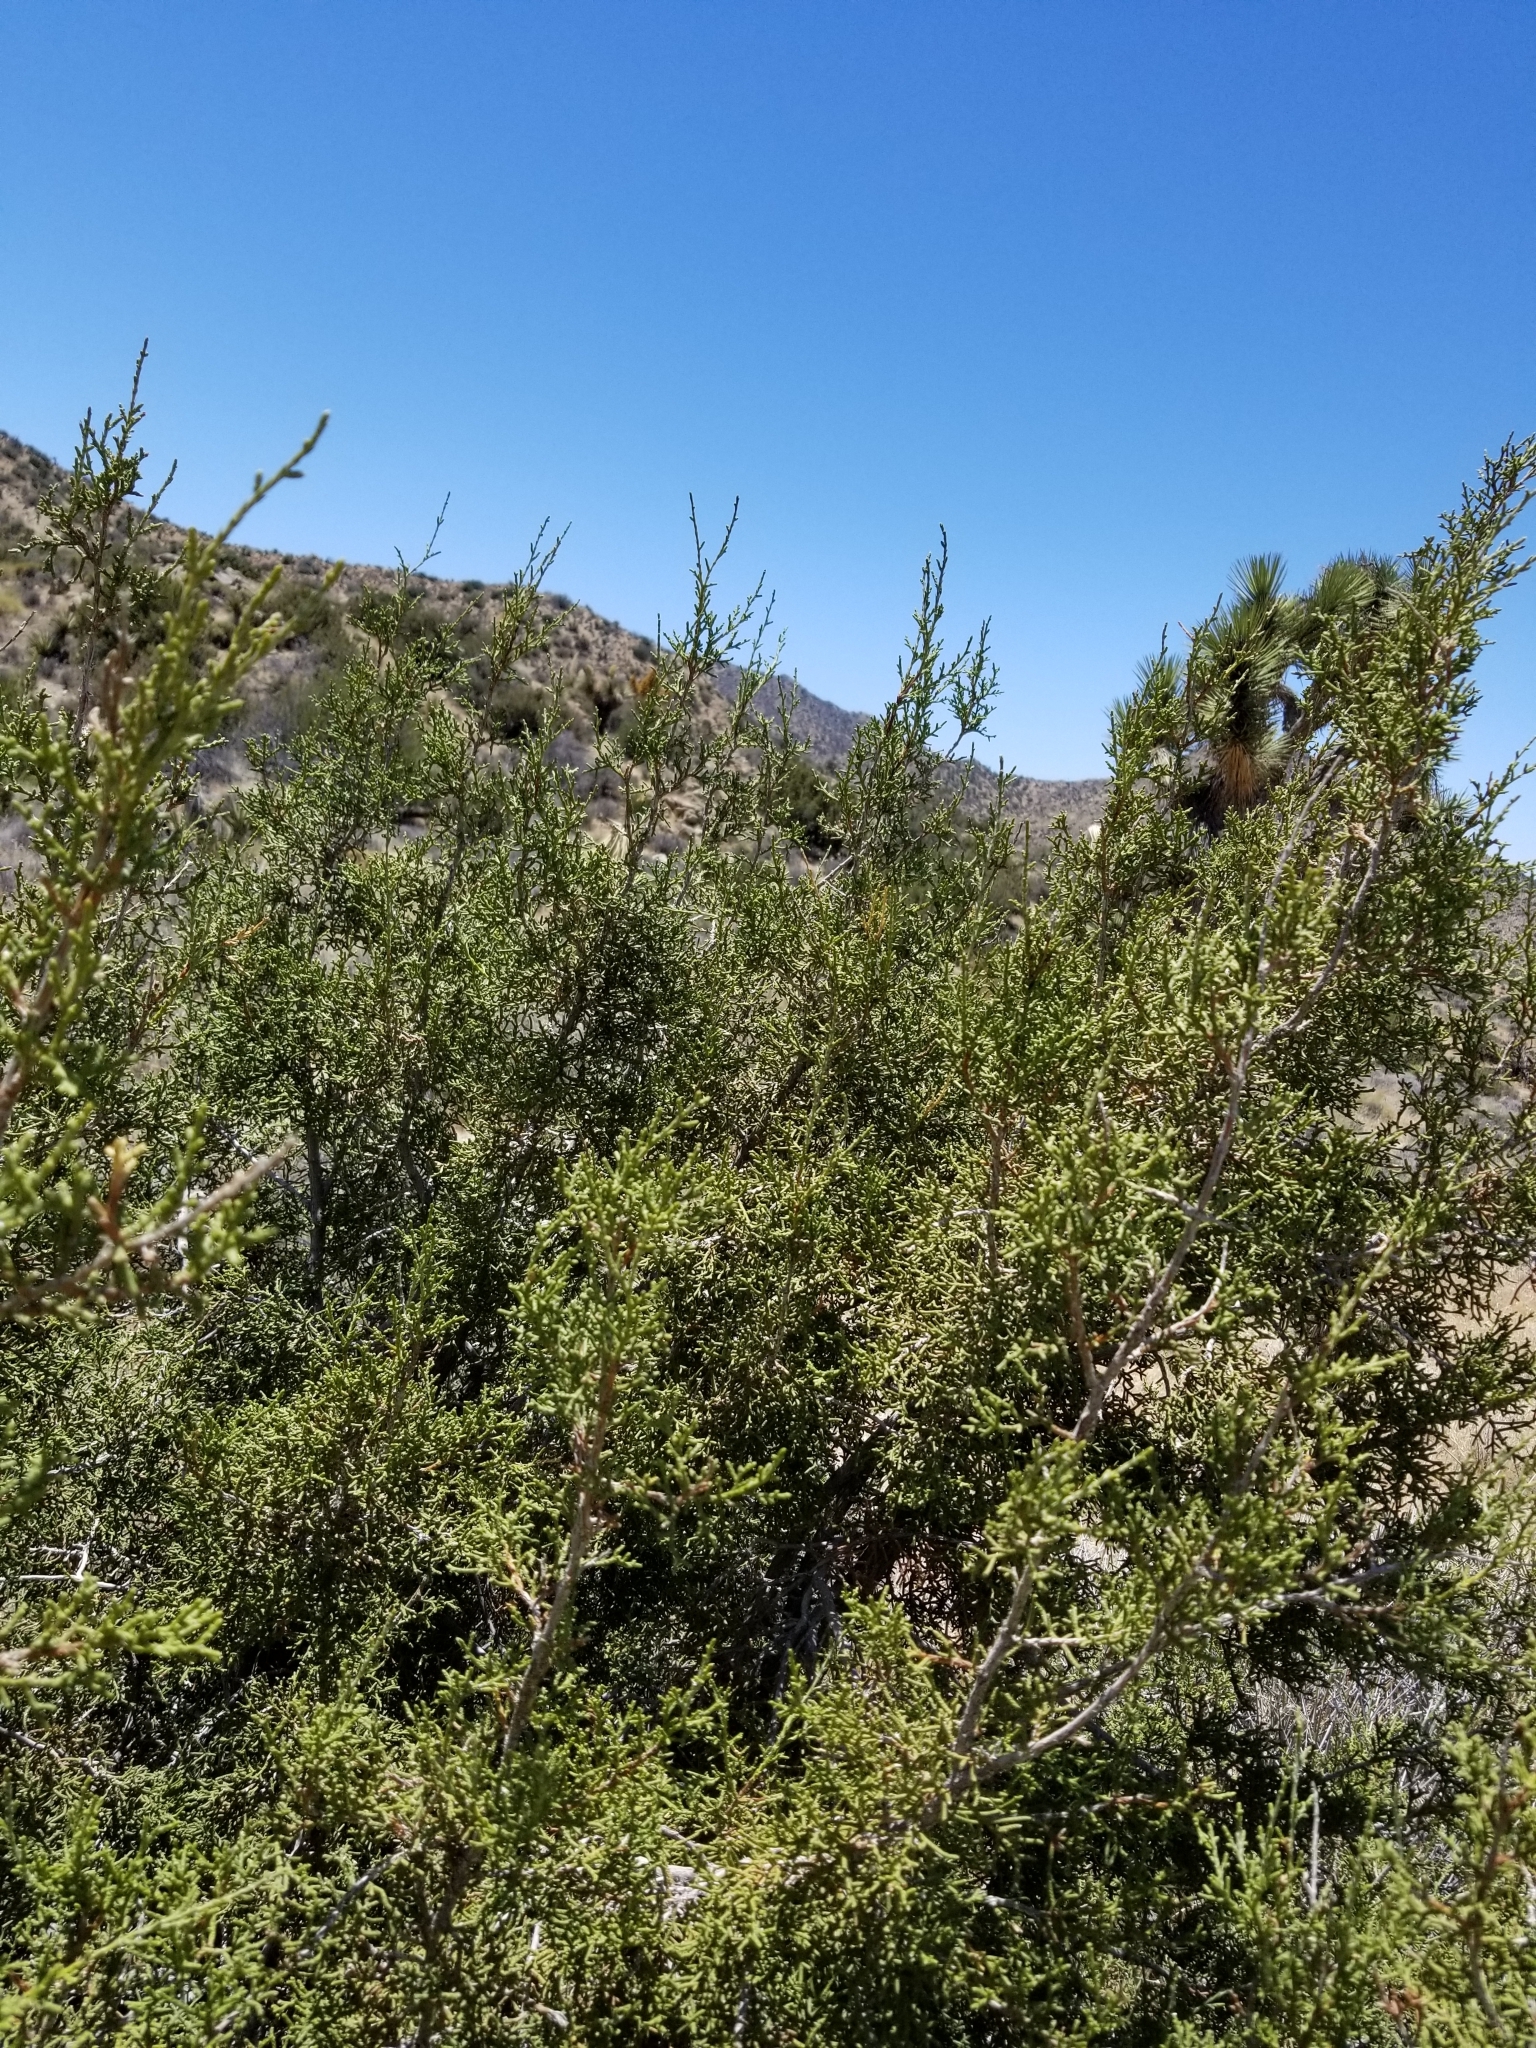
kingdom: Plantae
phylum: Tracheophyta
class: Pinopsida
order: Pinales
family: Cupressaceae
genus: Juniperus
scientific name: Juniperus californica
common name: California juniper
